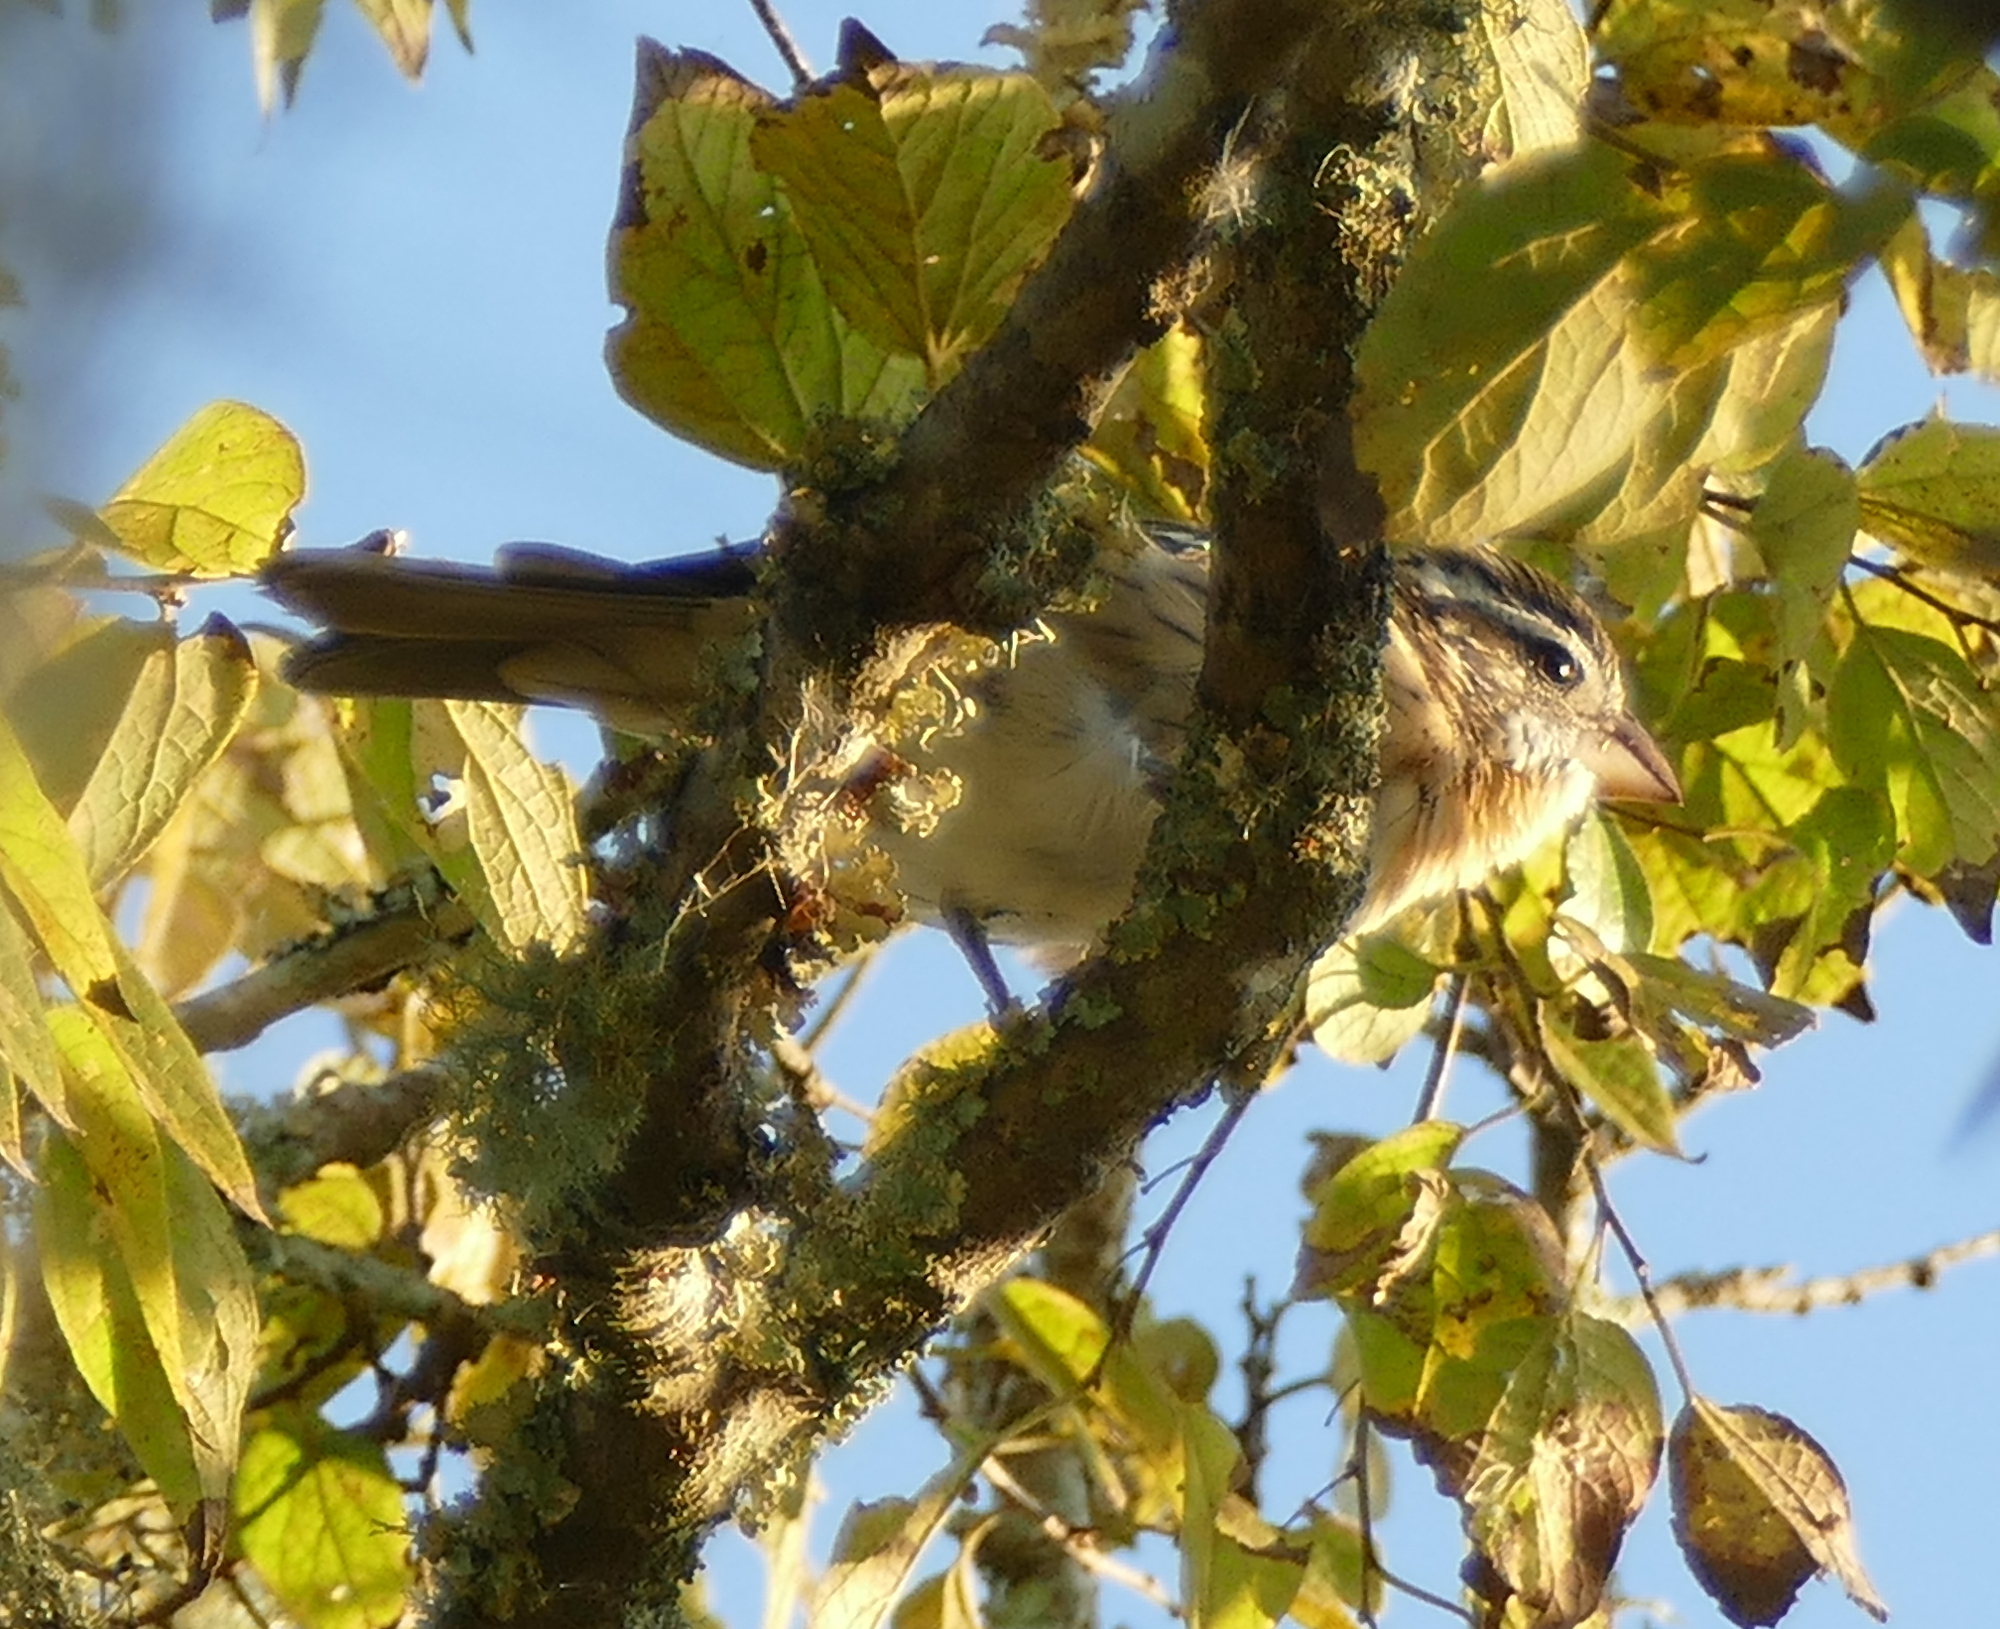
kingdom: Animalia
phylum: Chordata
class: Aves
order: Passeriformes
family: Cardinalidae
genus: Pheucticus
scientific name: Pheucticus ludovicianus
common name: Rose-breasted grosbeak
